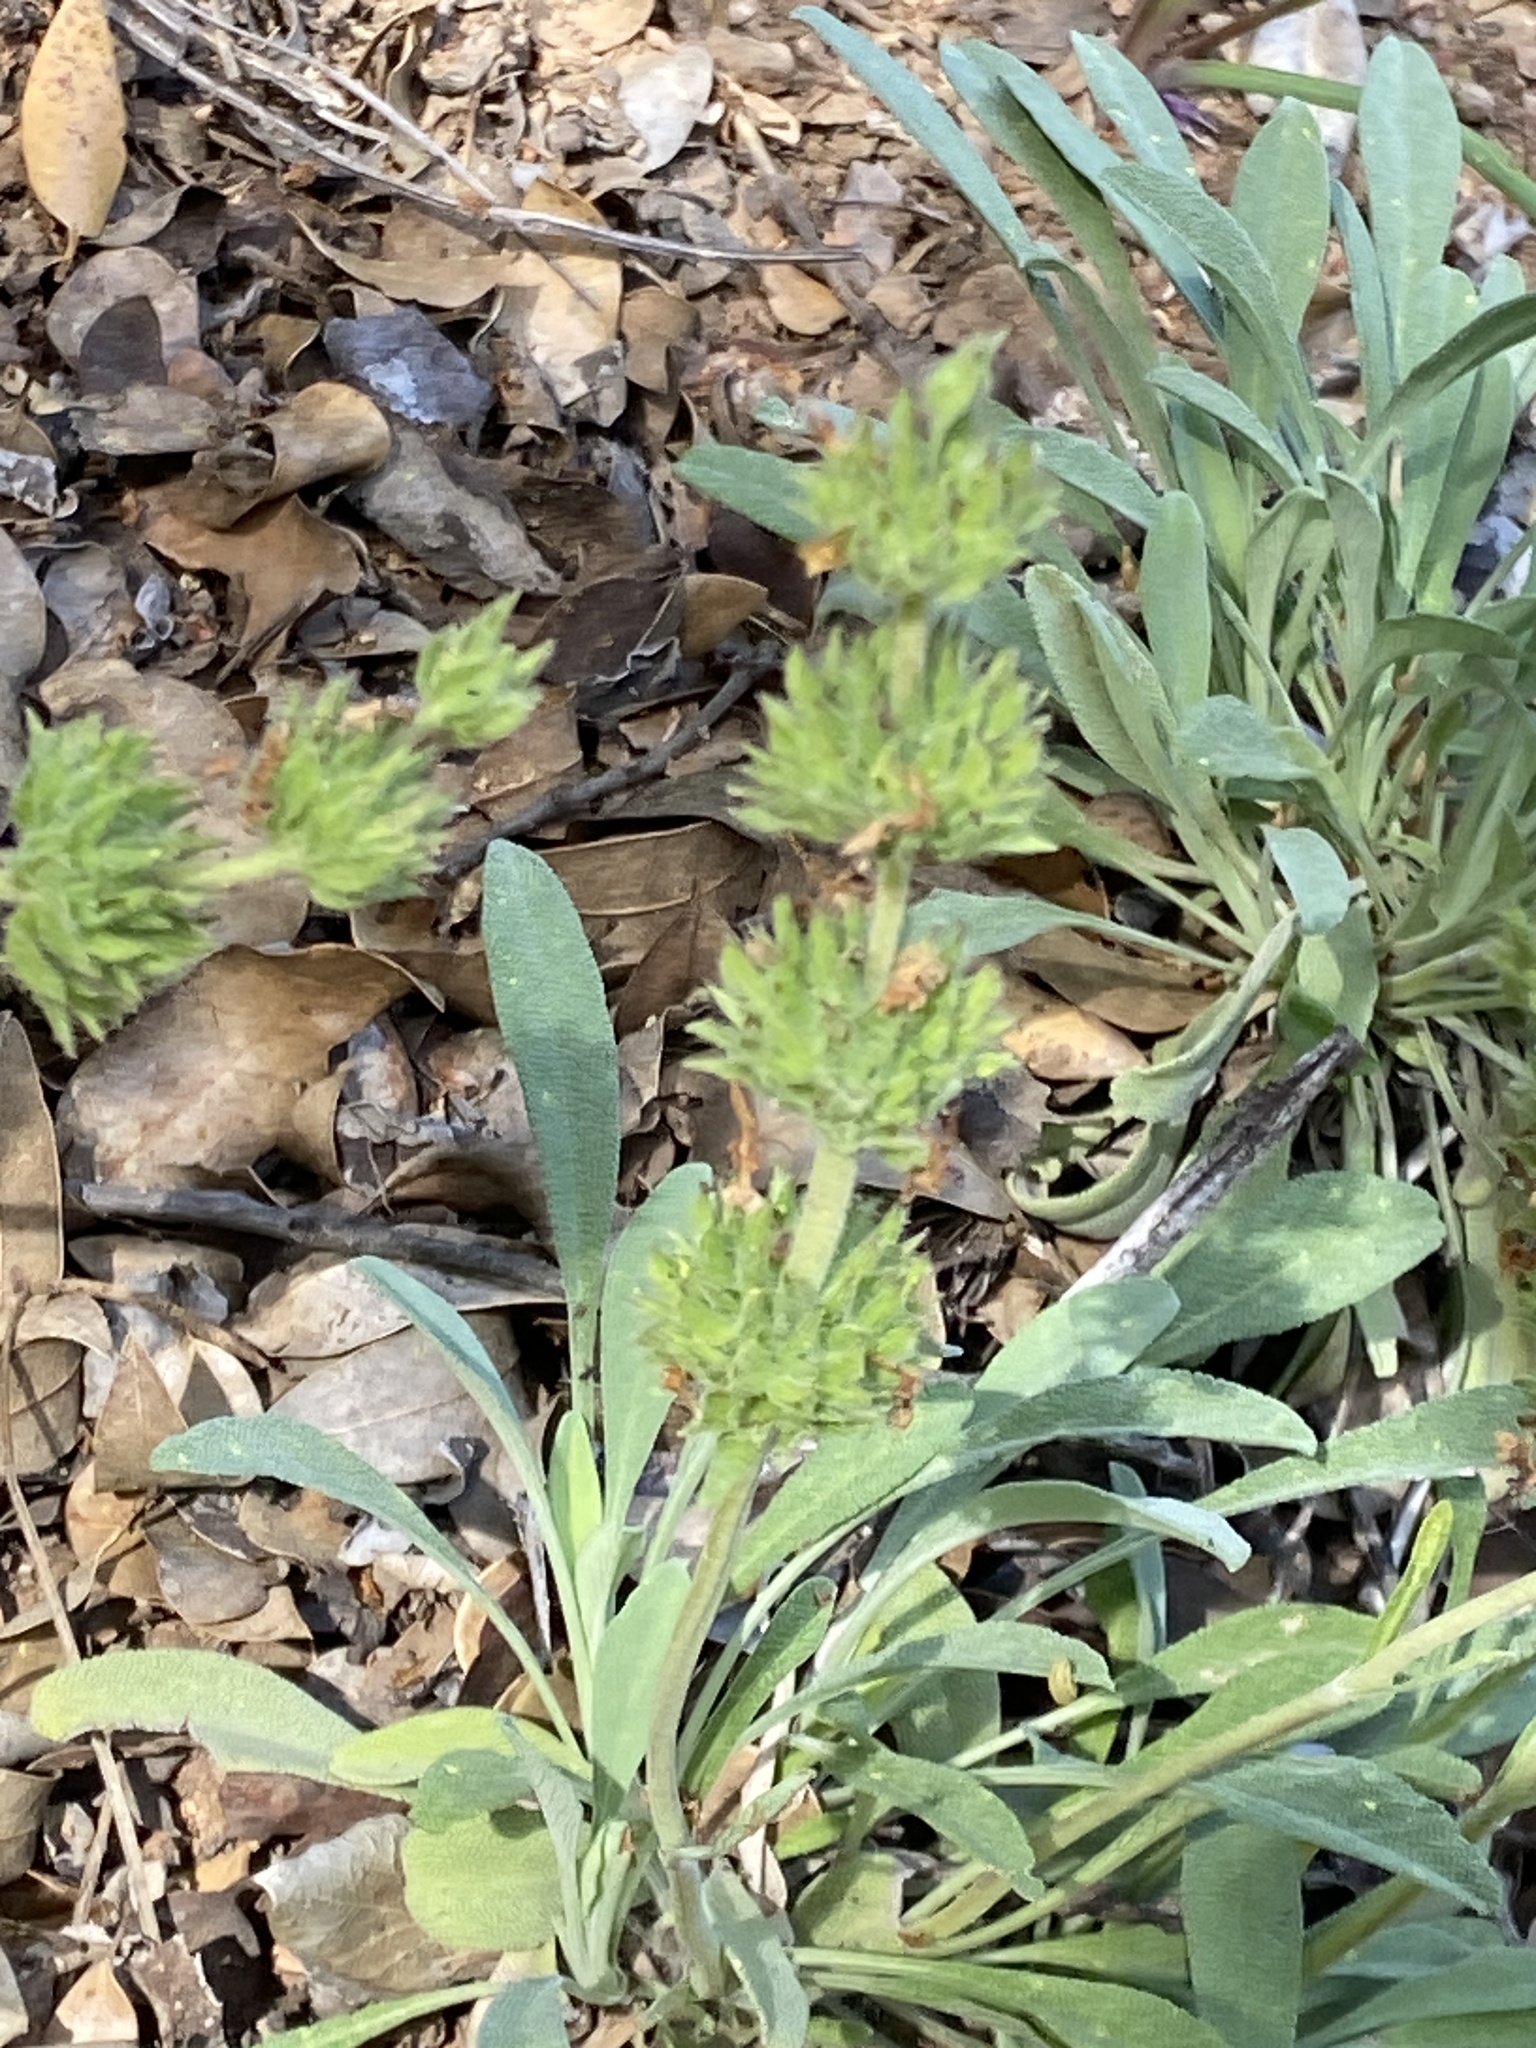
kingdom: Plantae
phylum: Tracheophyta
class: Magnoliopsida
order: Lamiales
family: Lamiaceae
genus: Salvia
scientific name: Salvia sonomensis
